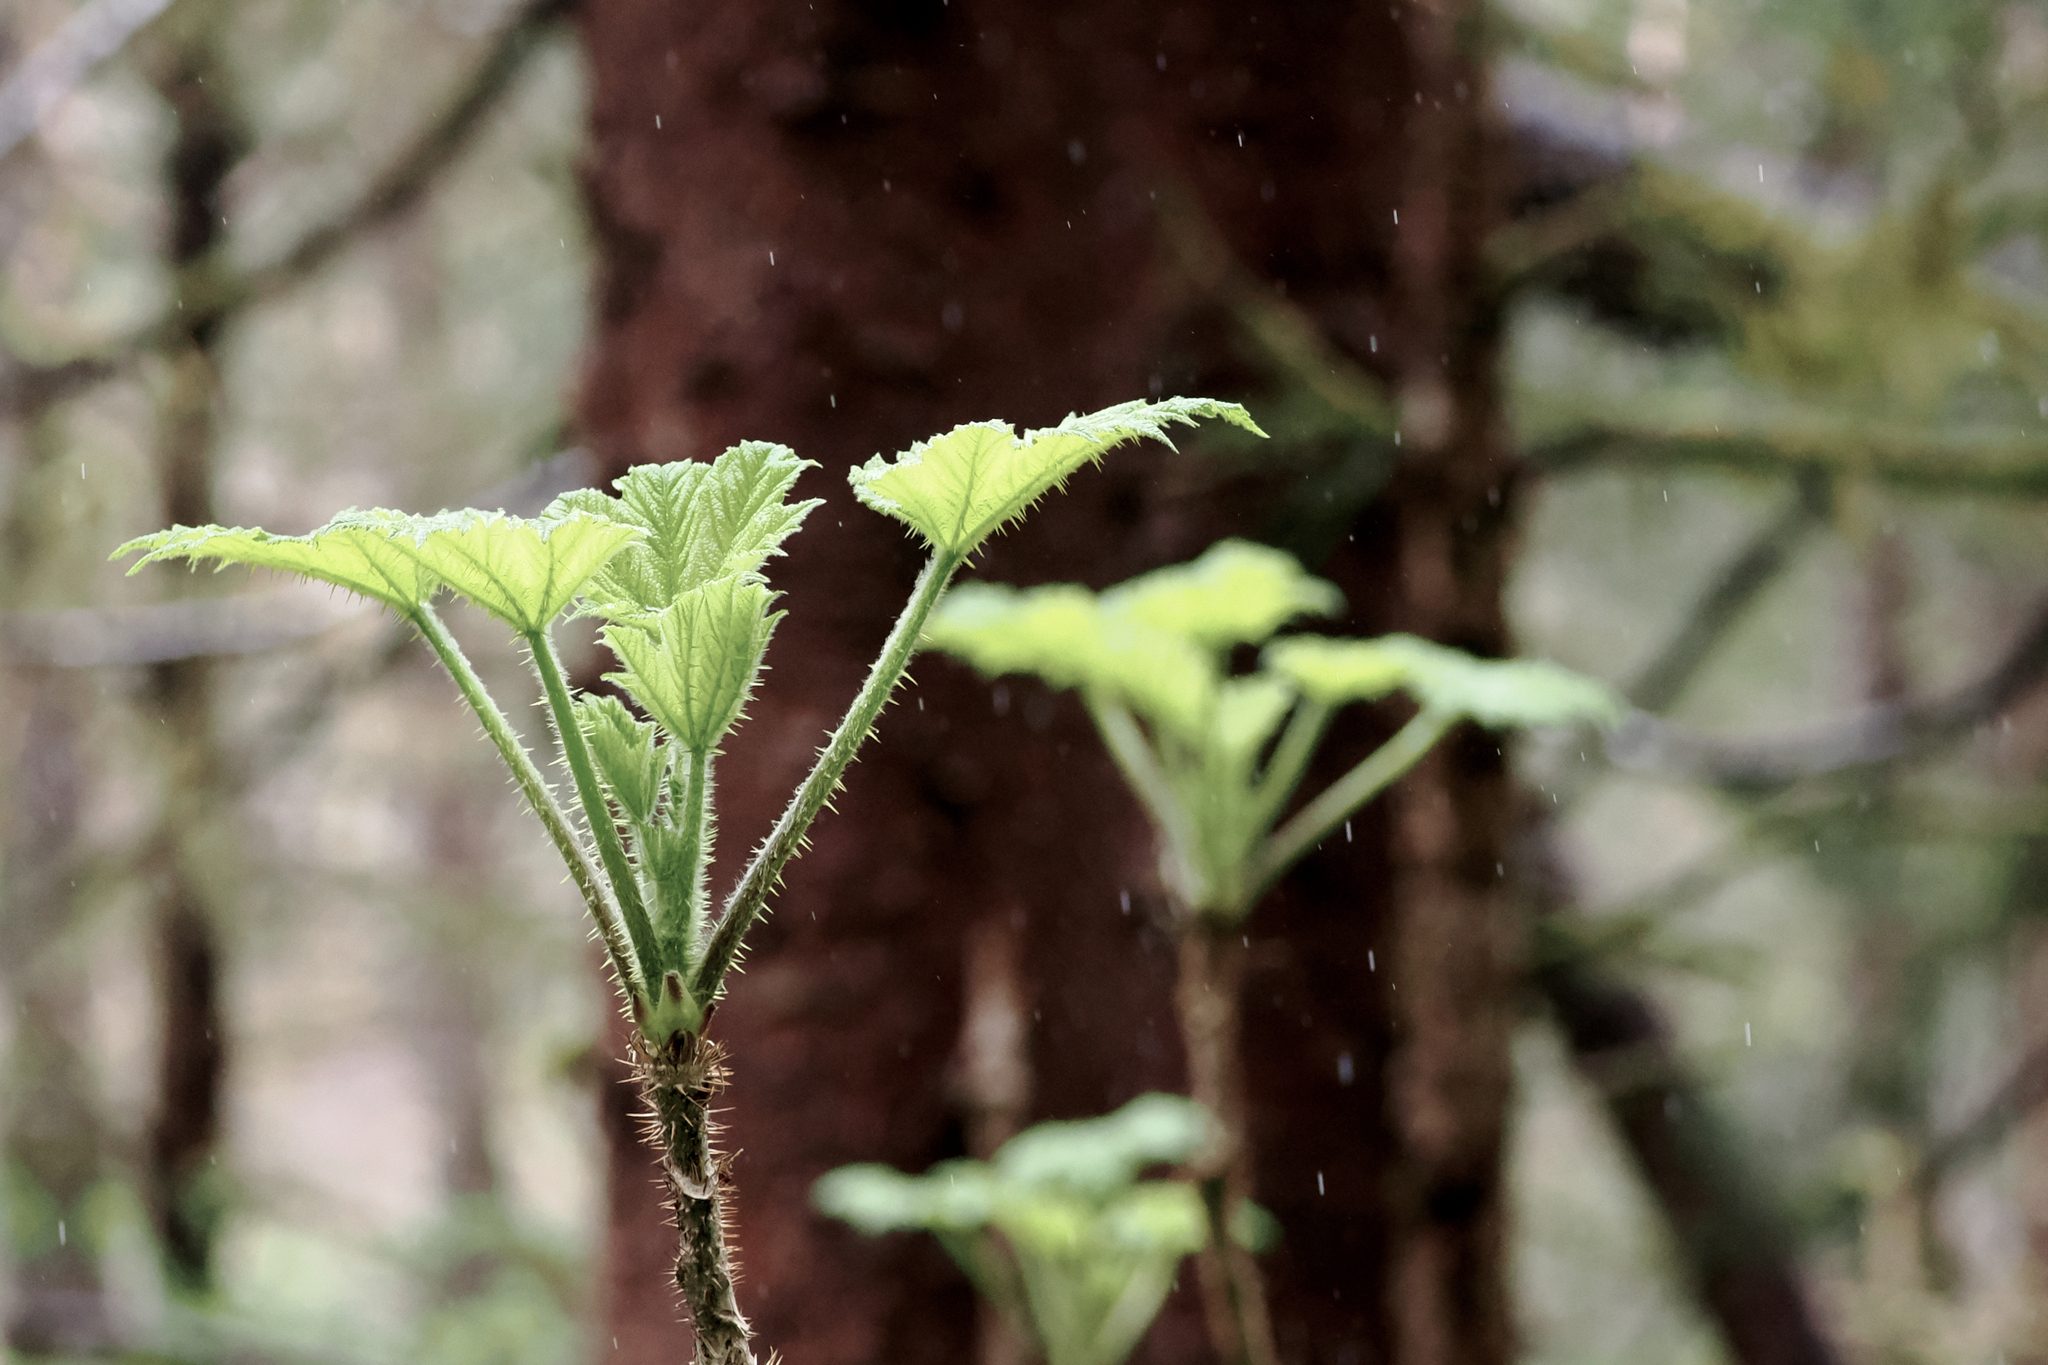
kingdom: Plantae
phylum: Tracheophyta
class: Magnoliopsida
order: Apiales
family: Araliaceae
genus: Oplopanax
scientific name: Oplopanax horridus
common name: Devil's walking-stick
